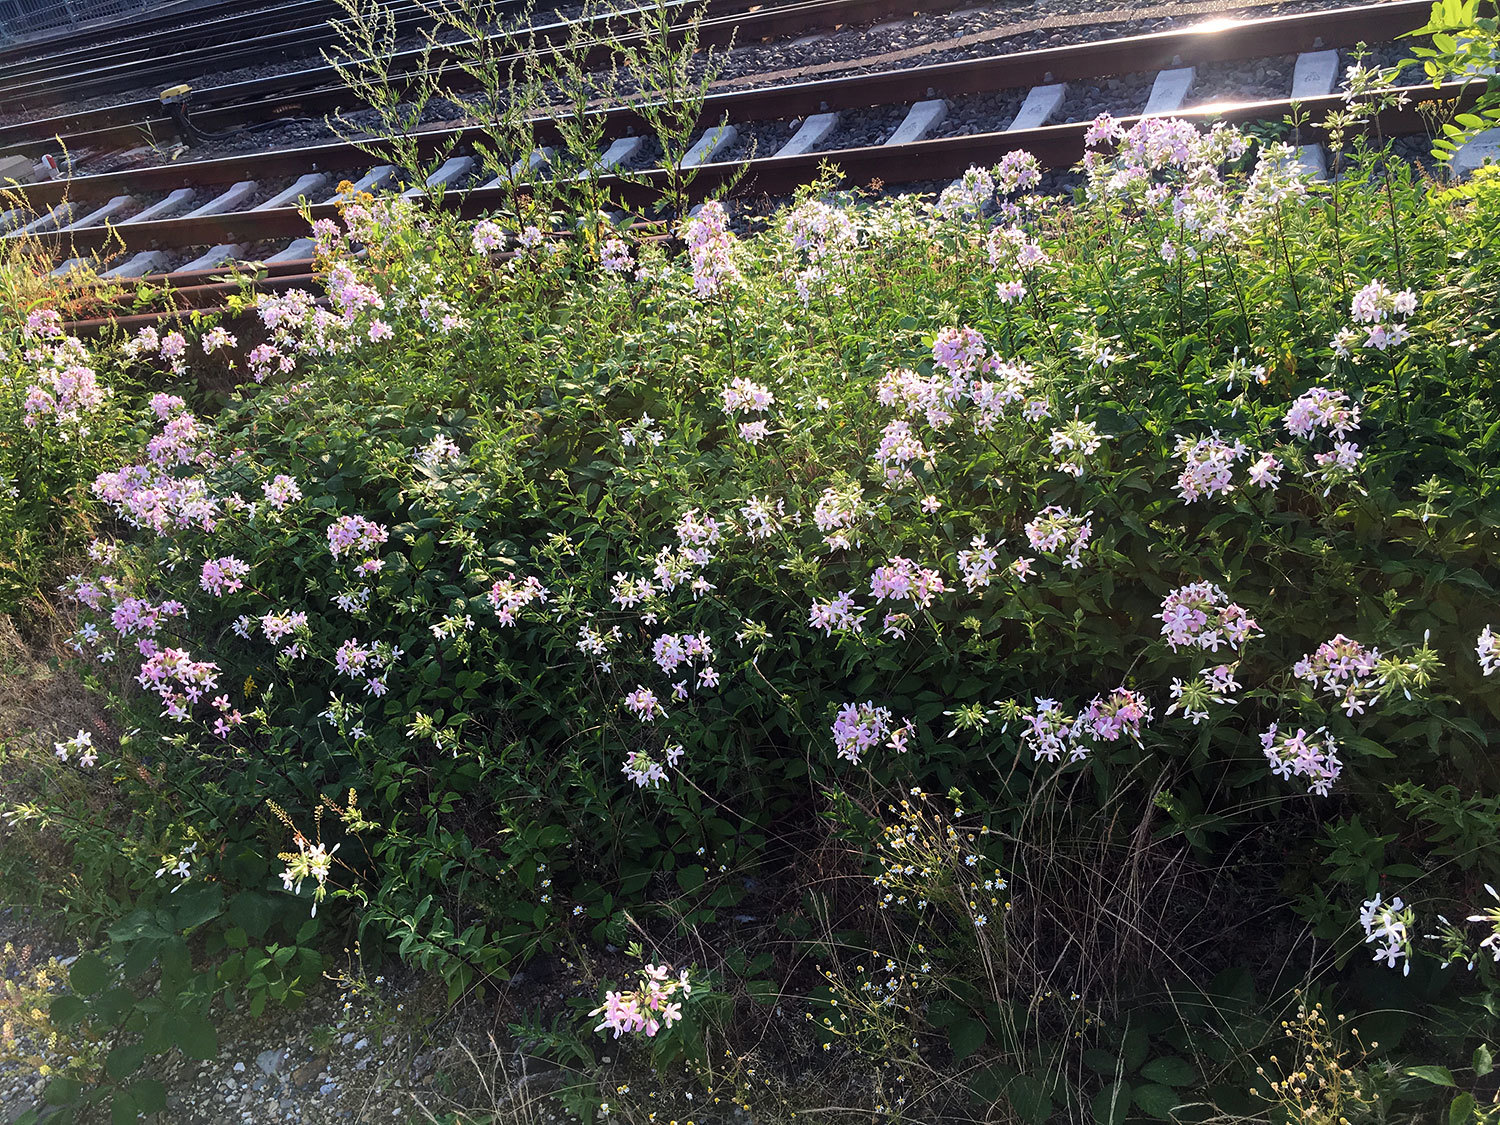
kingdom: Plantae
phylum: Tracheophyta
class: Magnoliopsida
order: Caryophyllales
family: Caryophyllaceae
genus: Saponaria
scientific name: Saponaria officinalis
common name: Soapwort
